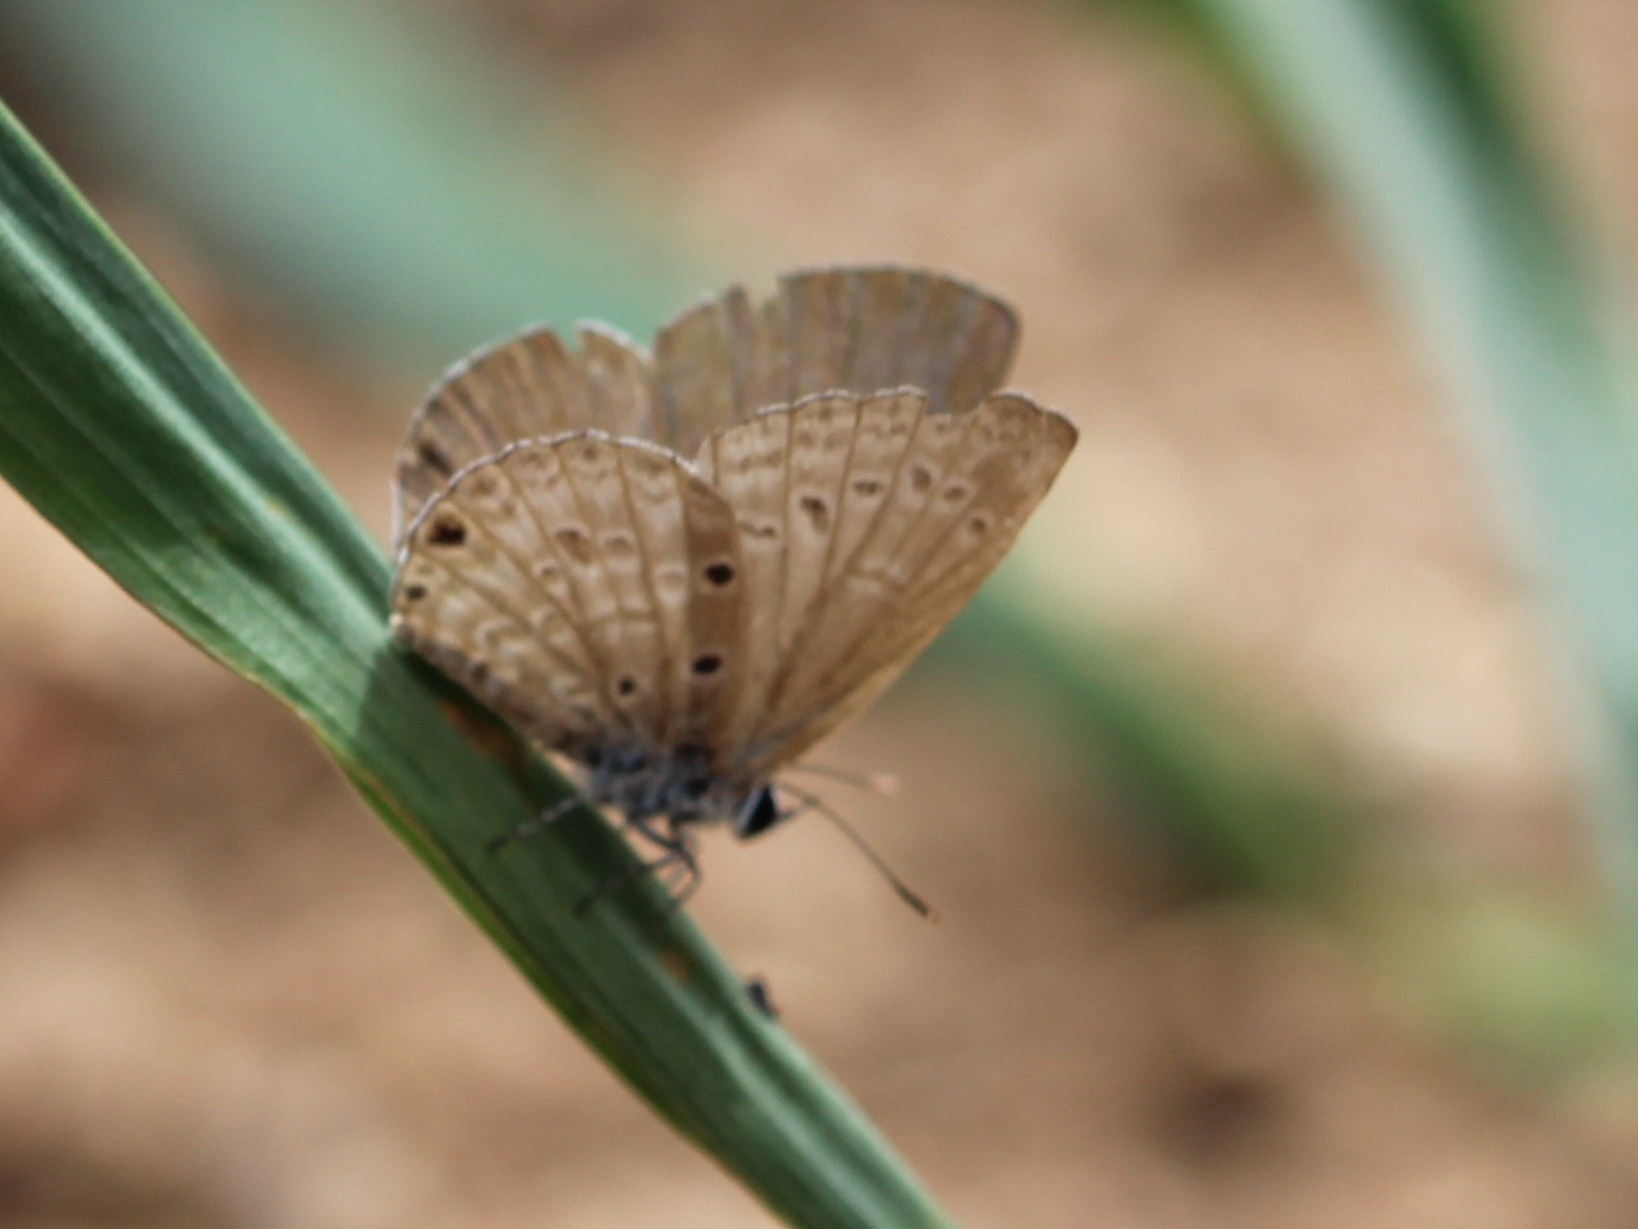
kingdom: Animalia
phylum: Arthropoda
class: Insecta
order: Lepidoptera
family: Lycaenidae
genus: Luthrodes
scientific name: Luthrodes pandava
